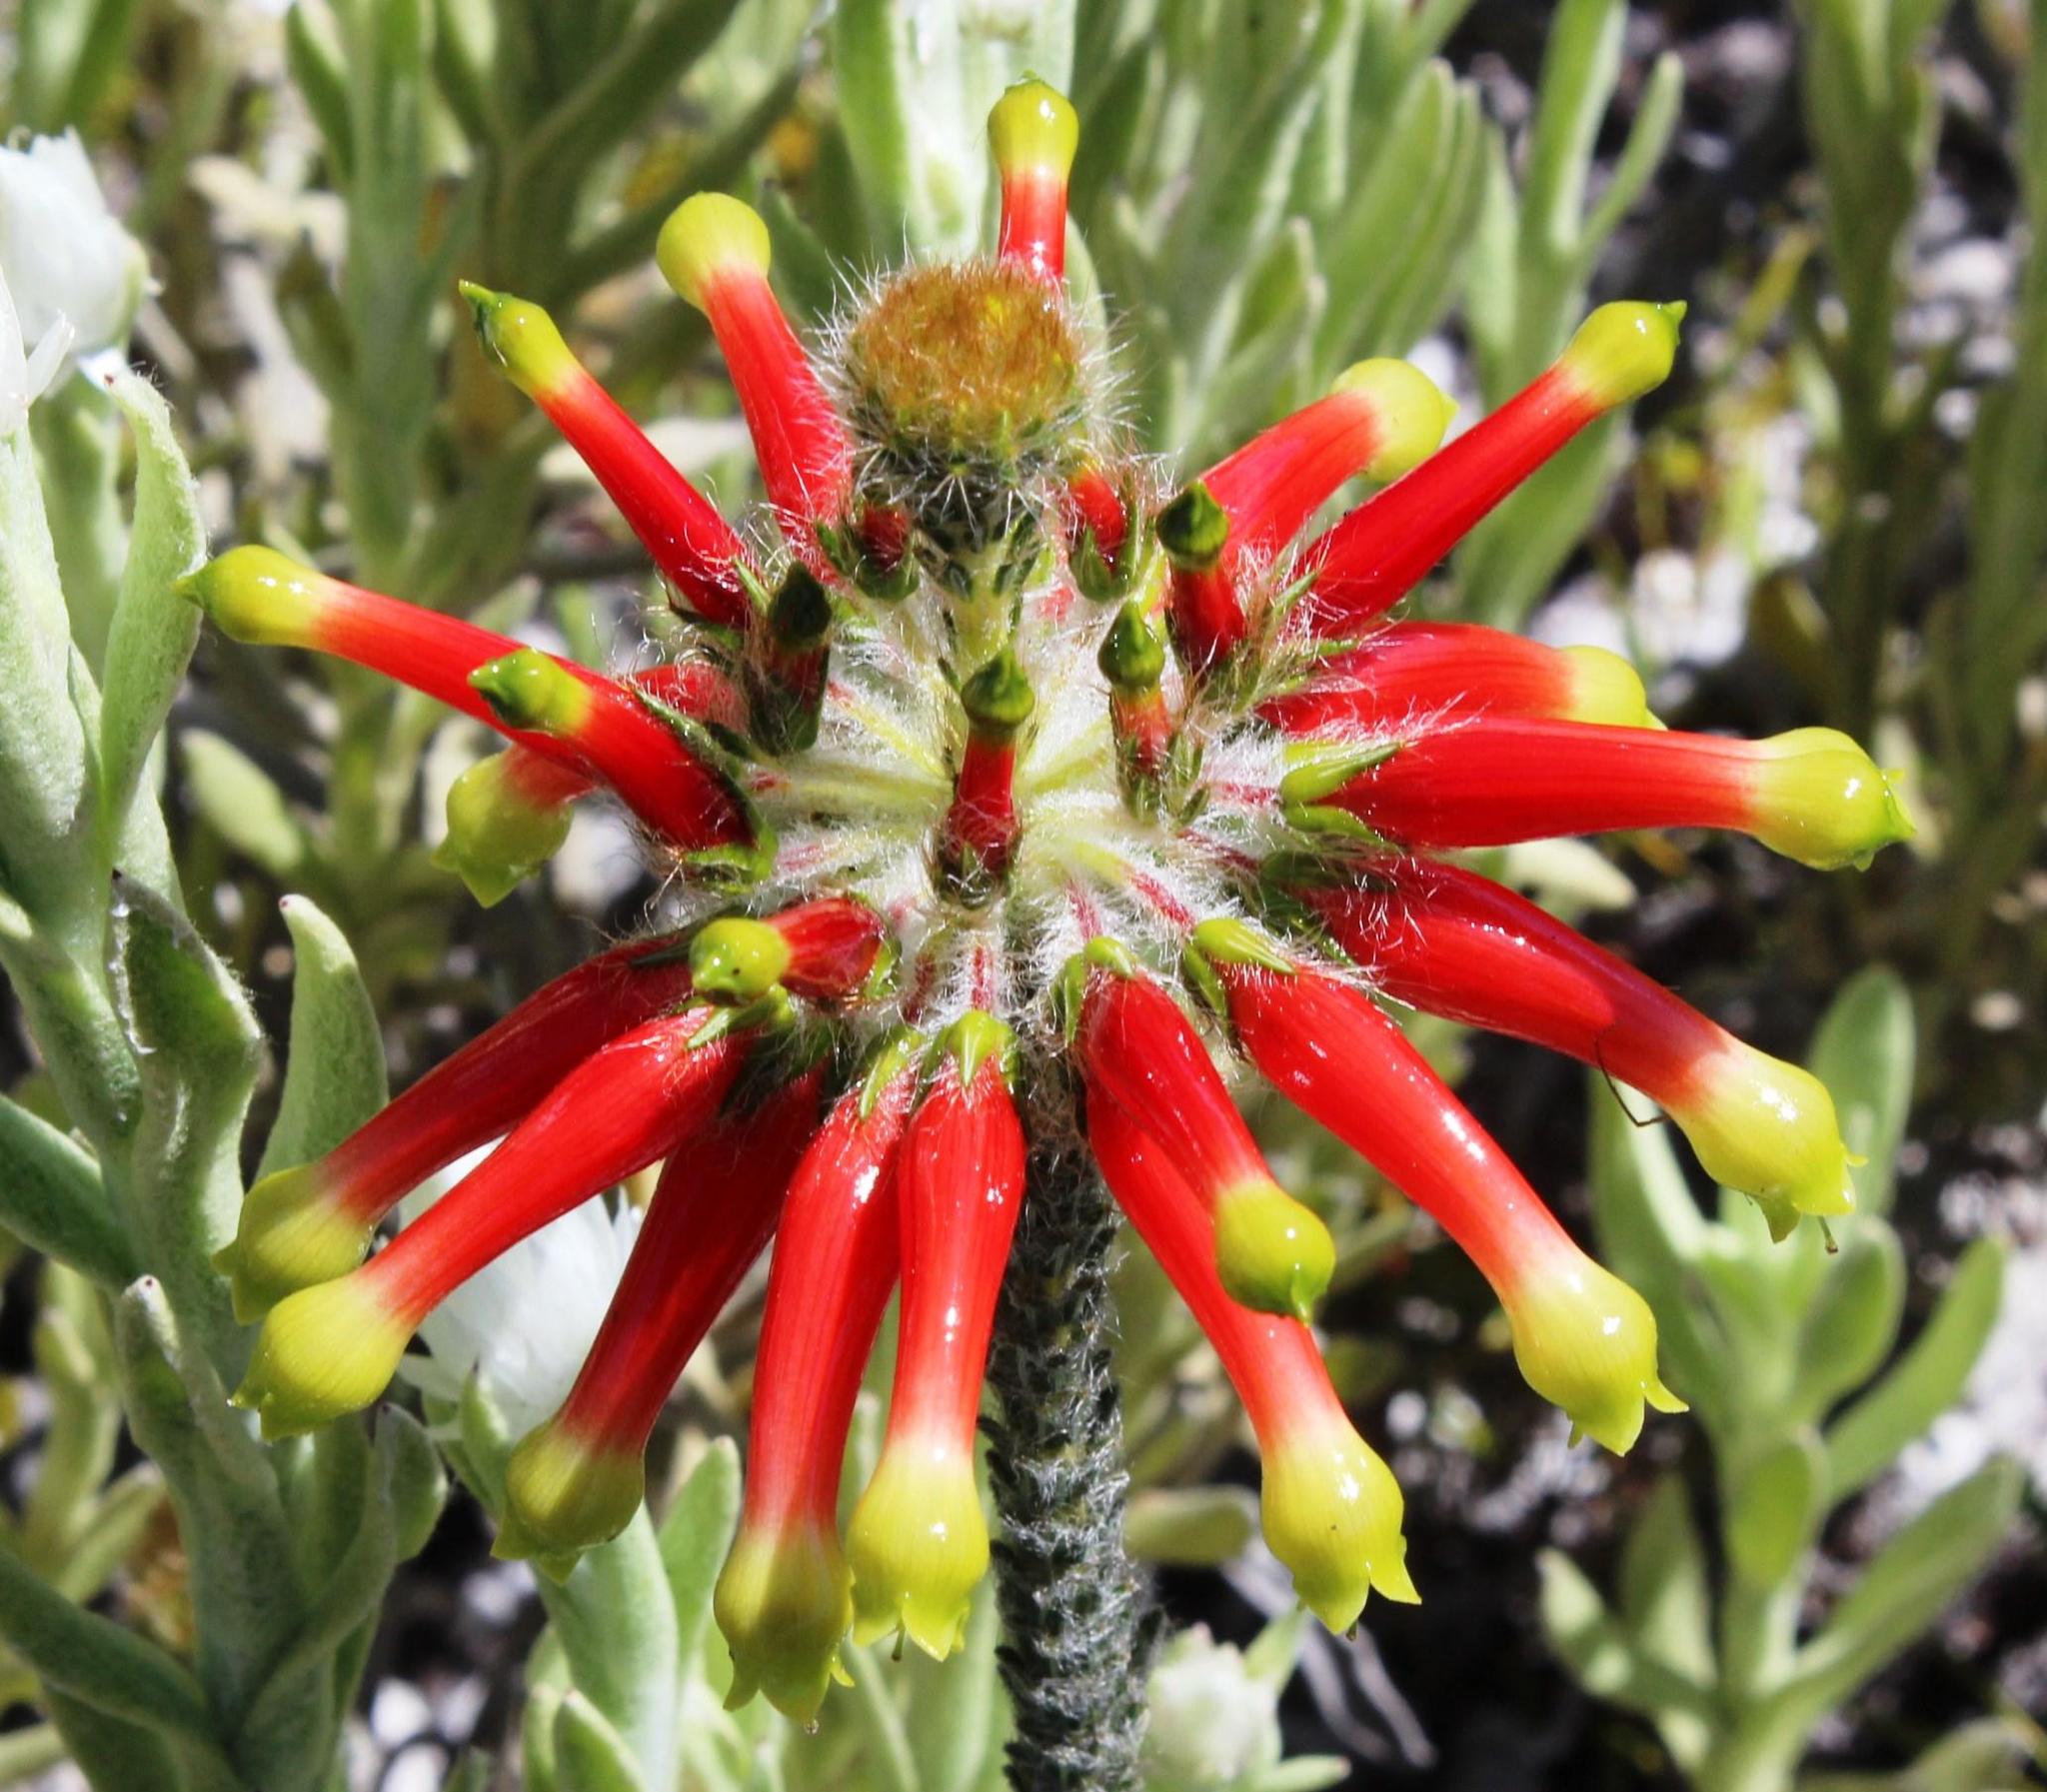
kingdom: Plantae
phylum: Tracheophyta
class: Magnoliopsida
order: Ericales
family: Ericaceae
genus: Erica
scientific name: Erica massonii
